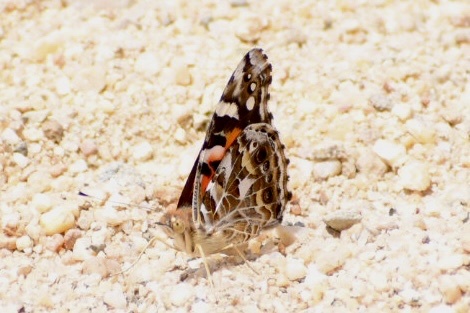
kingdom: Animalia
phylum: Arthropoda
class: Insecta
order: Lepidoptera
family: Nymphalidae
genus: Vanessa
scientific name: Vanessa kershawi
